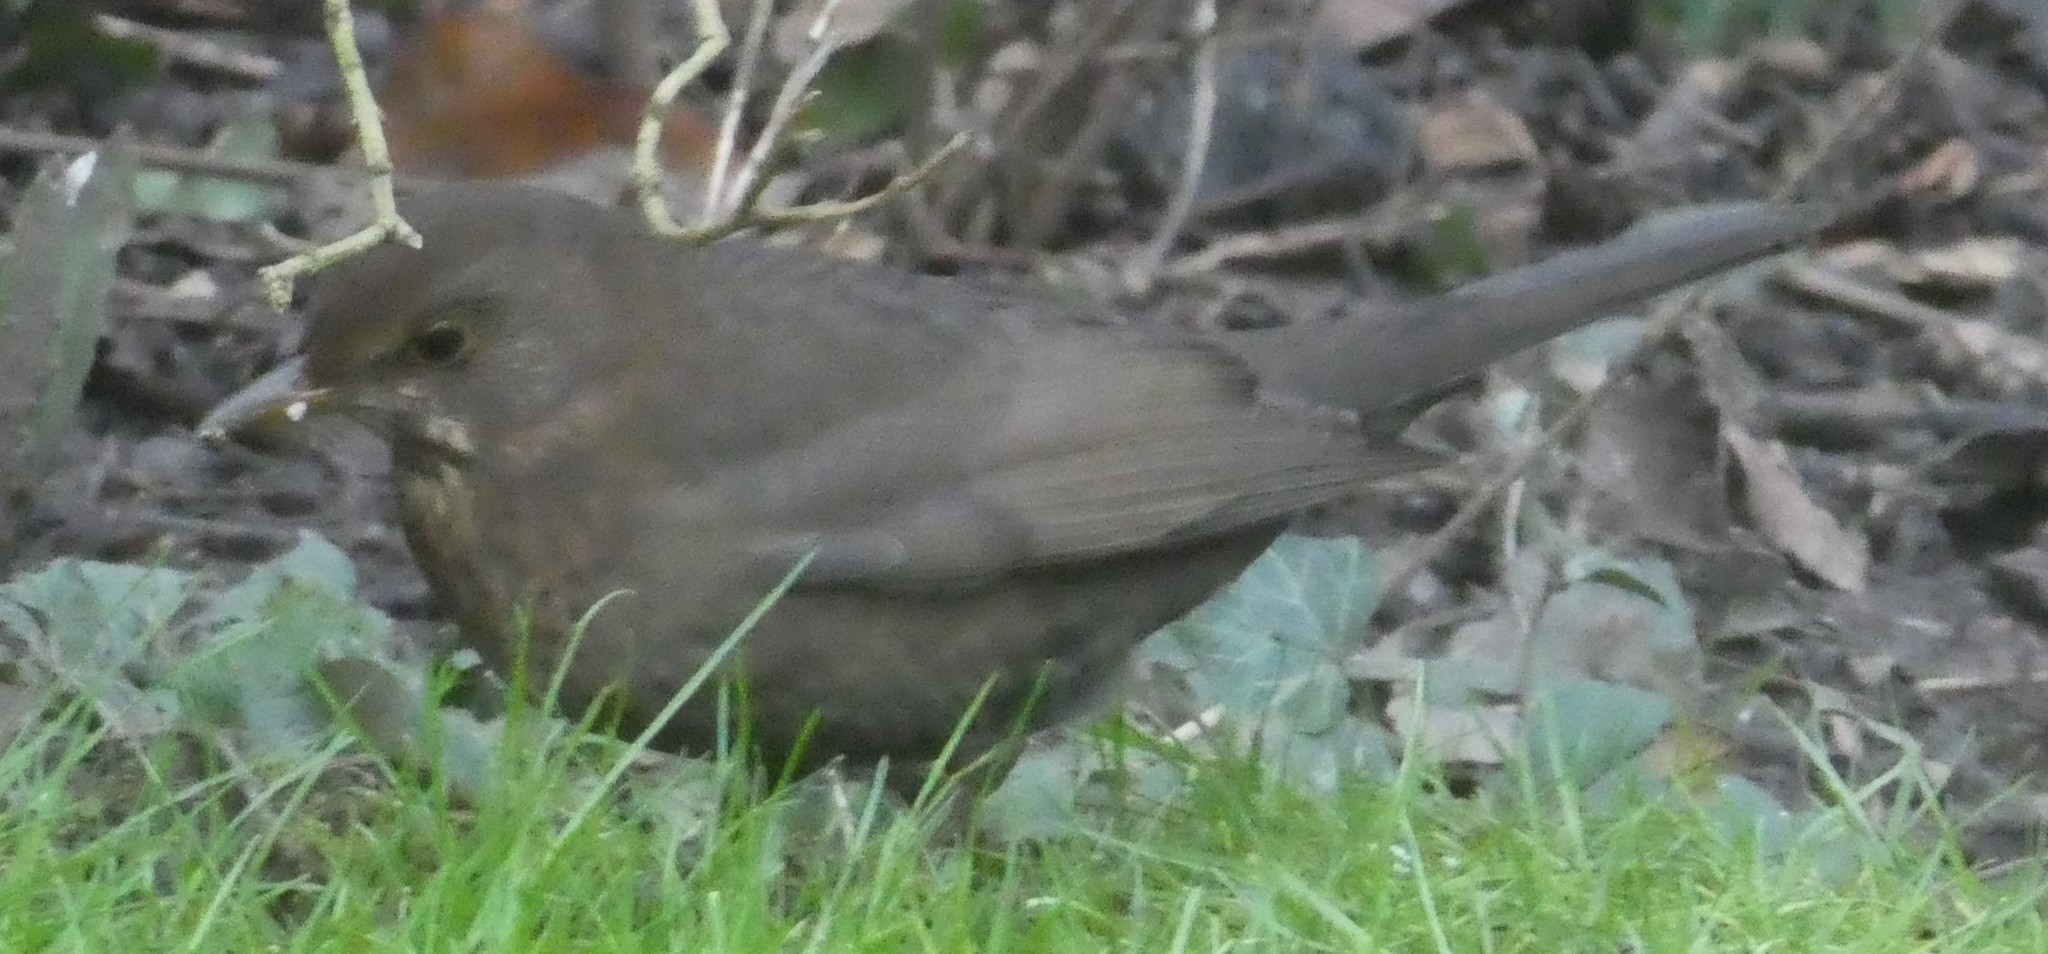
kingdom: Animalia
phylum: Chordata
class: Aves
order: Passeriformes
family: Turdidae
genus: Turdus
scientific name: Turdus merula
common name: Common blackbird
